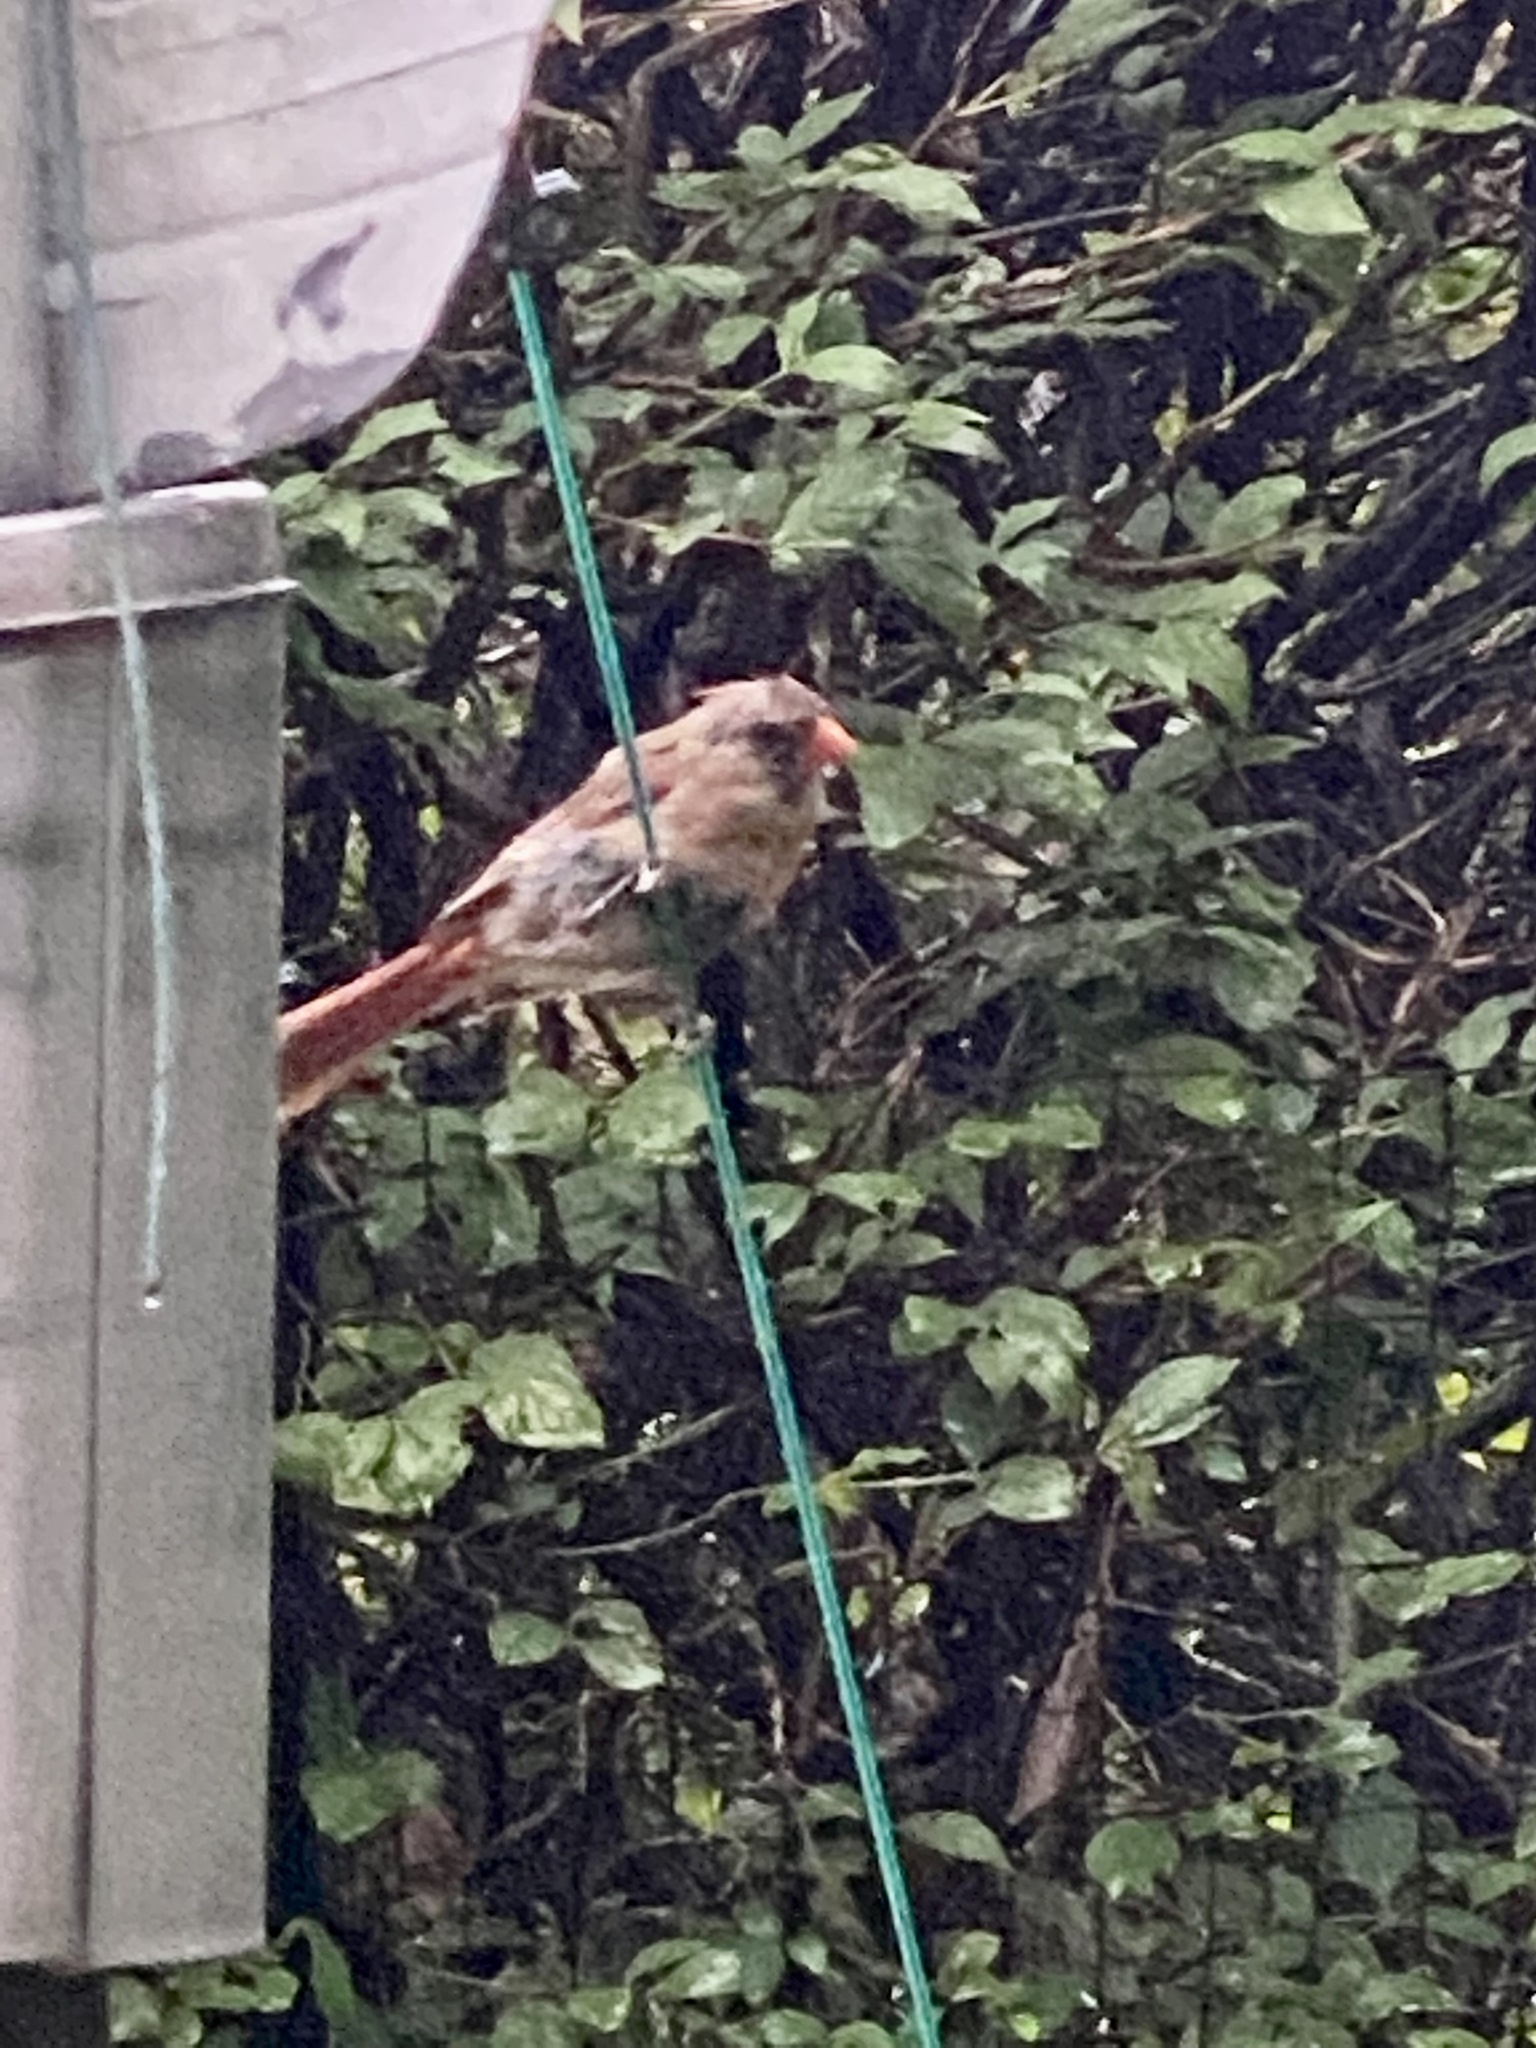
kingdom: Animalia
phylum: Chordata
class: Aves
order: Passeriformes
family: Cardinalidae
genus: Cardinalis
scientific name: Cardinalis cardinalis
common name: Northern cardinal
